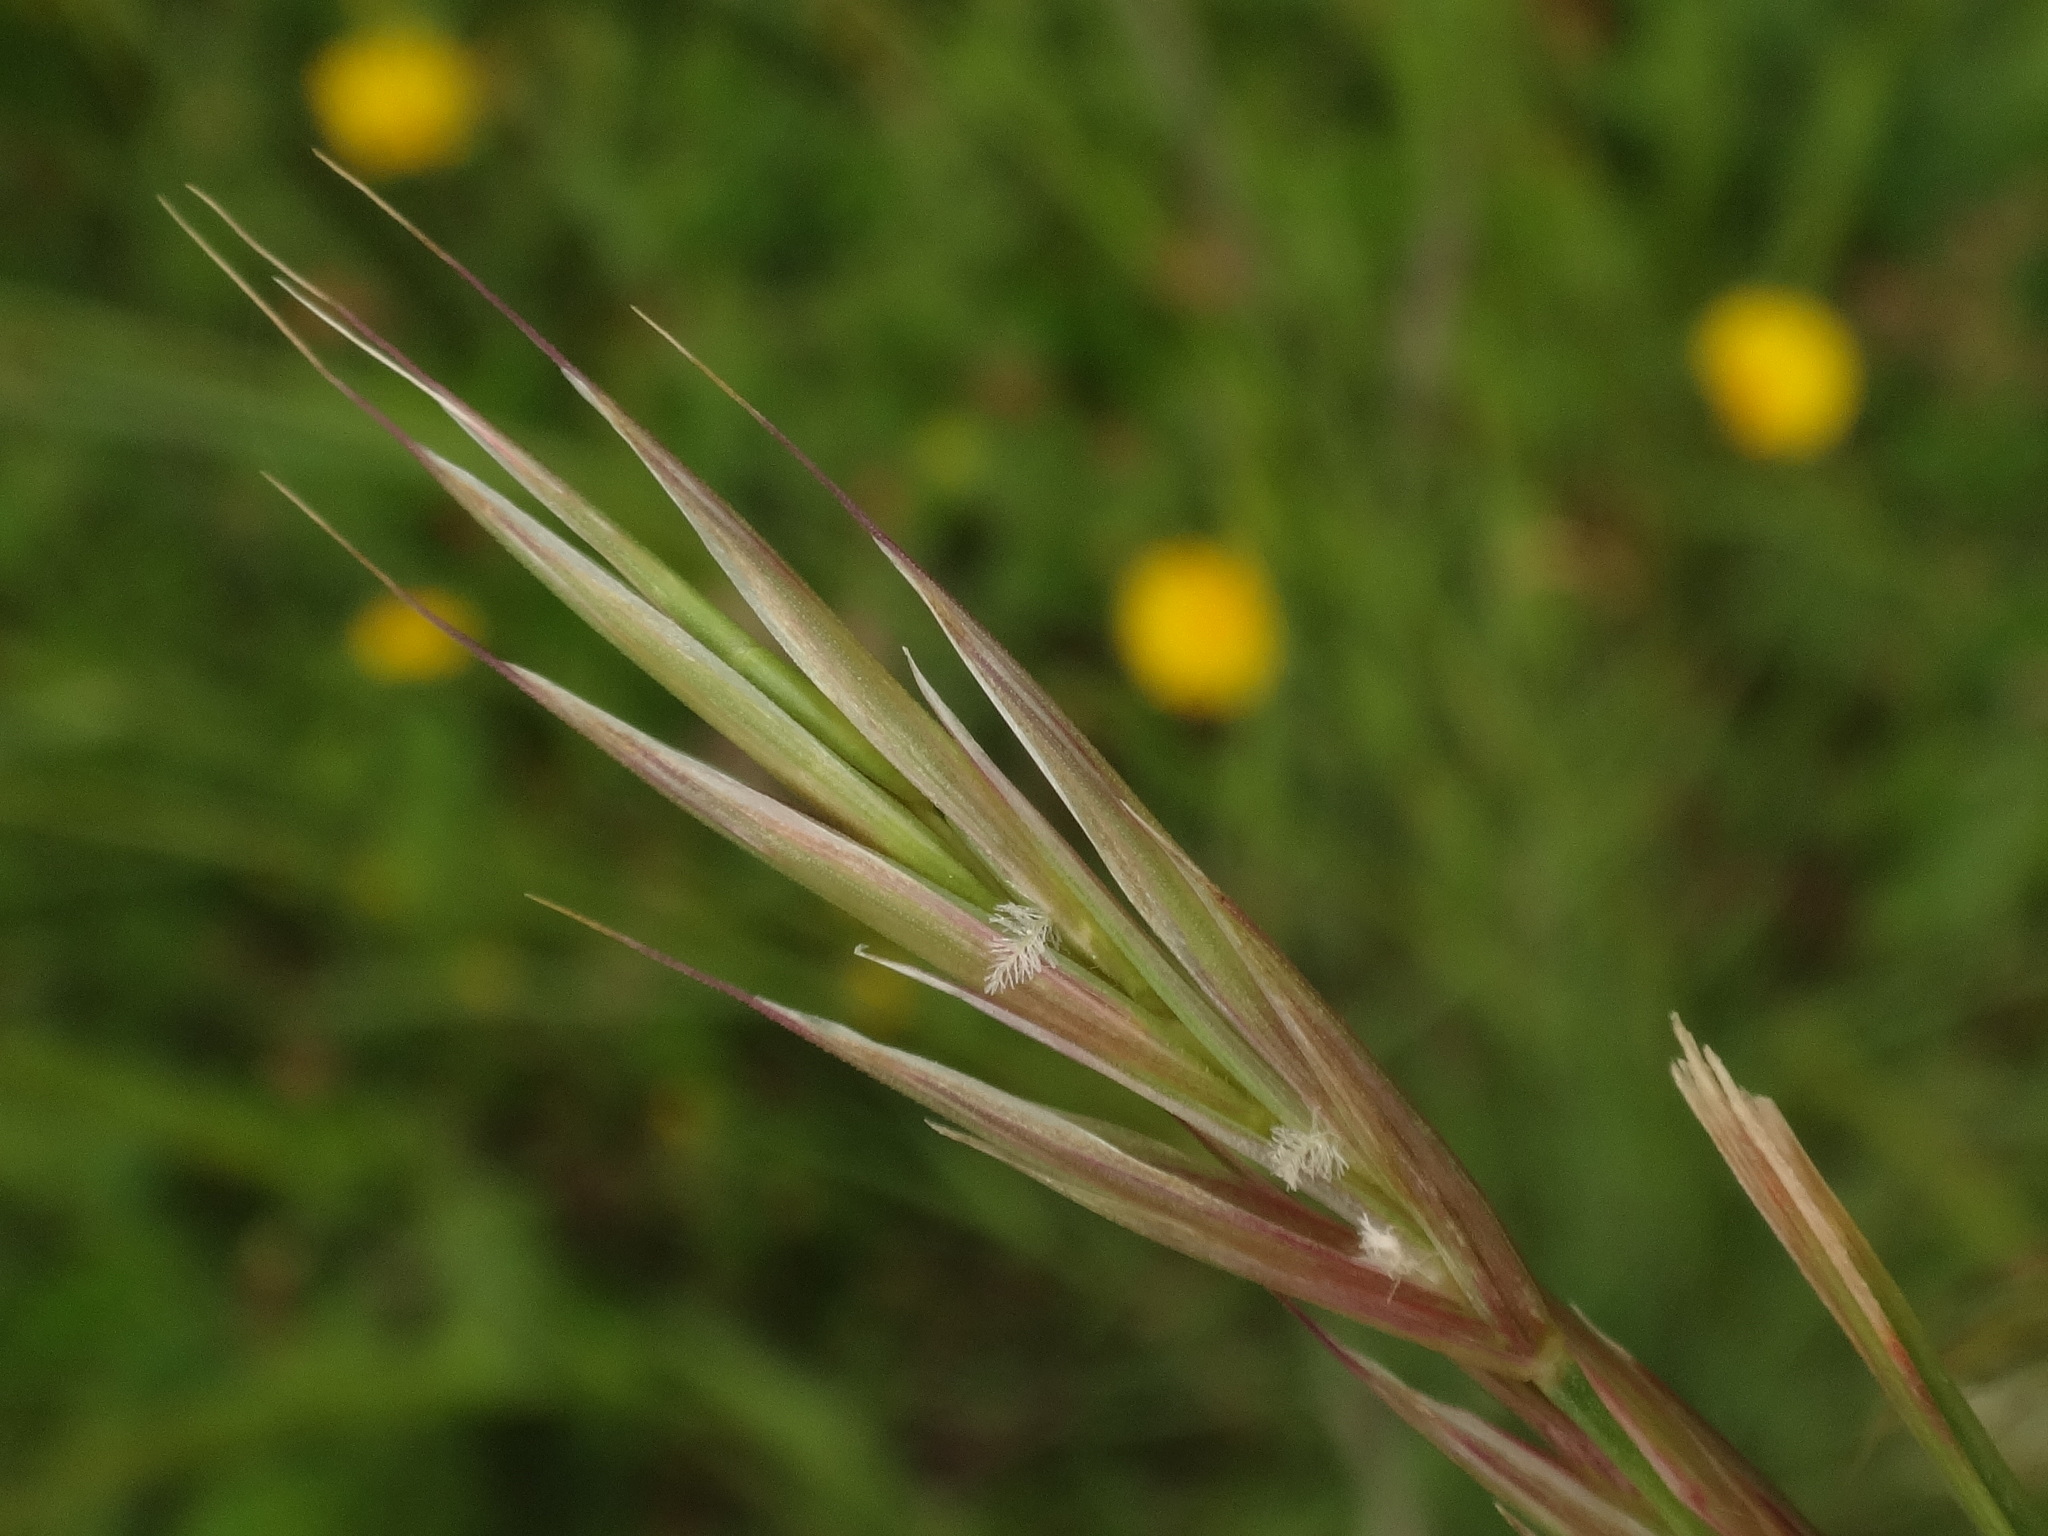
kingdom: Plantae
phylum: Tracheophyta
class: Liliopsida
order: Poales
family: Poaceae
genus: Bromus
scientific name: Bromus erectus
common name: Erect brome
